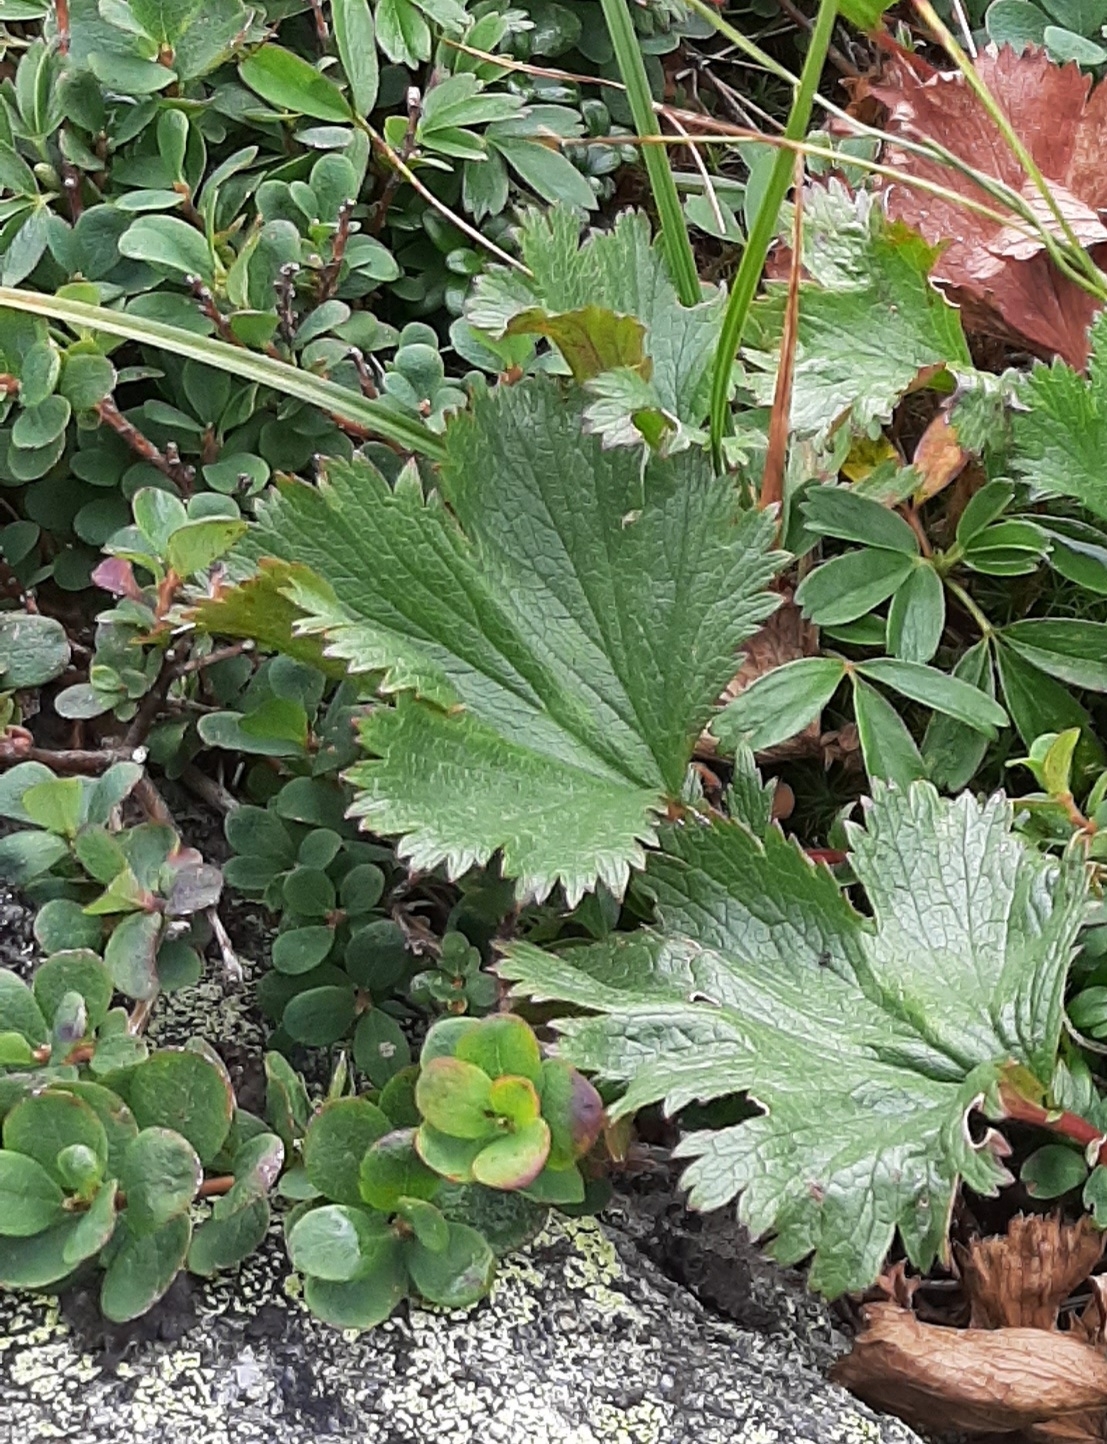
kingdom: Plantae
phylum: Tracheophyta
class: Magnoliopsida
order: Ericales
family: Ericaceae
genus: Vaccinium
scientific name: Vaccinium uliginosum
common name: Bog bilberry
